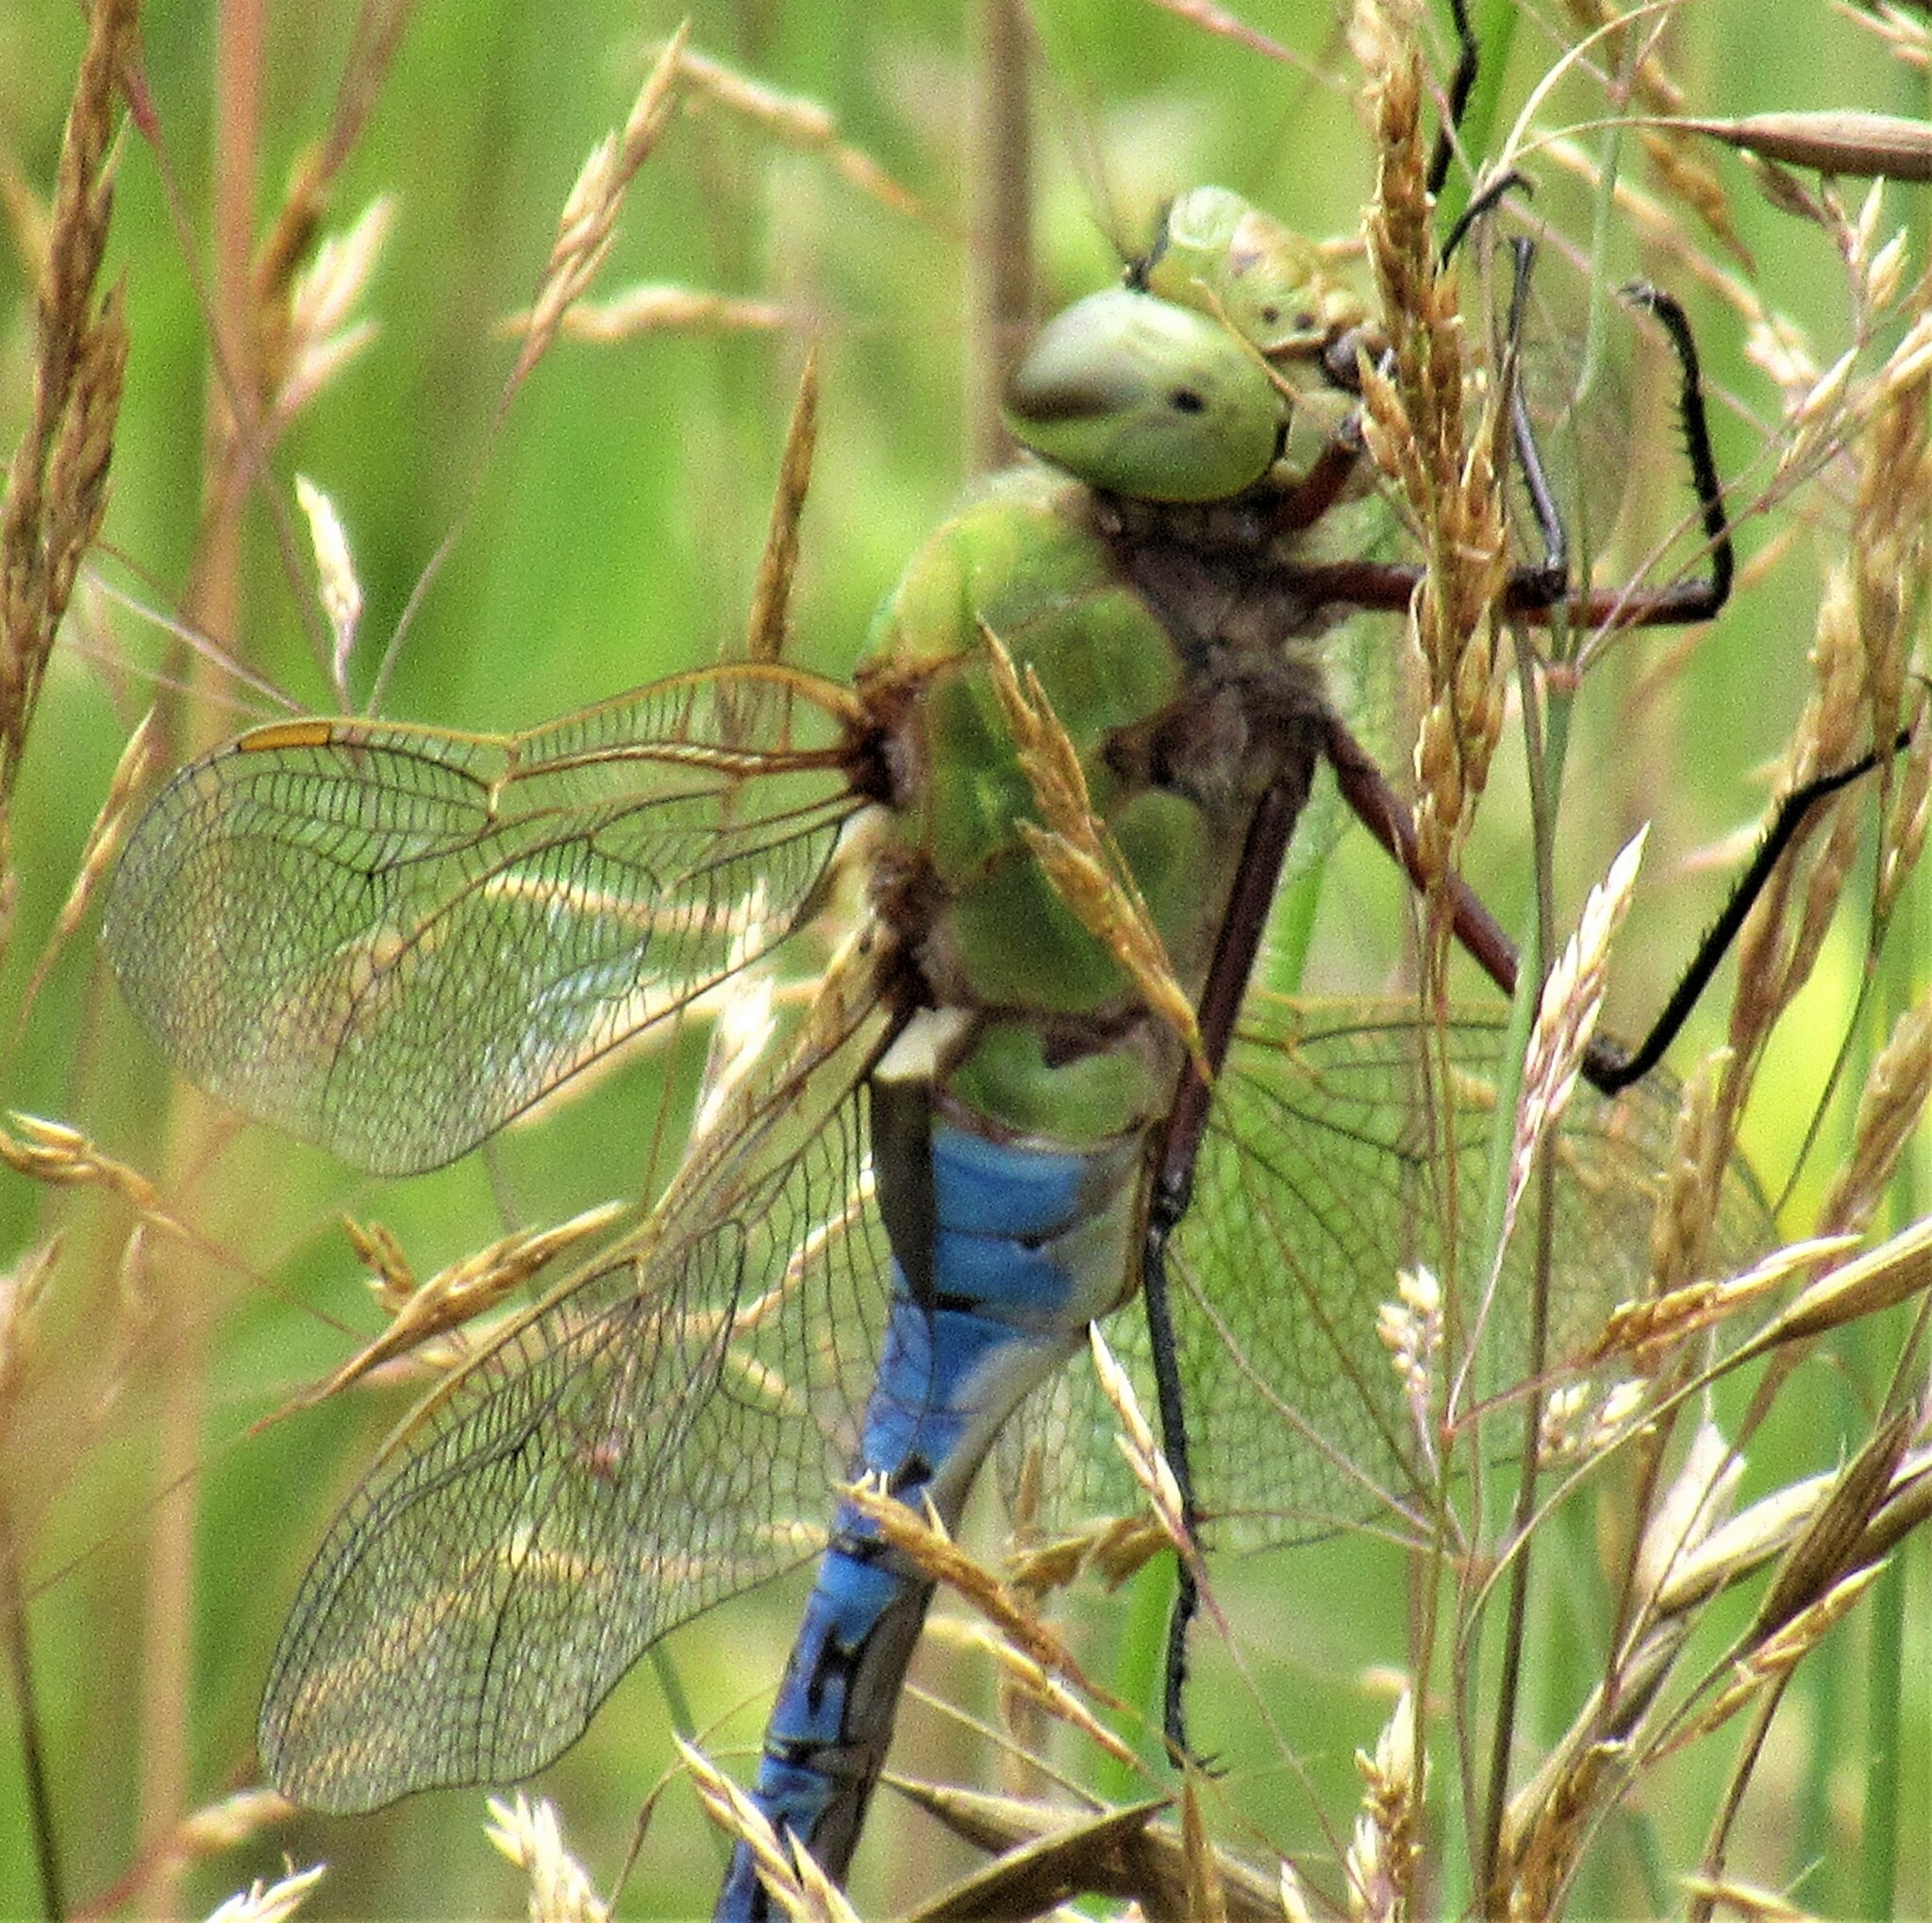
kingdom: Animalia
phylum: Arthropoda
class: Insecta
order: Odonata
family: Aeshnidae
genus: Anax
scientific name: Anax junius
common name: Common green darner
